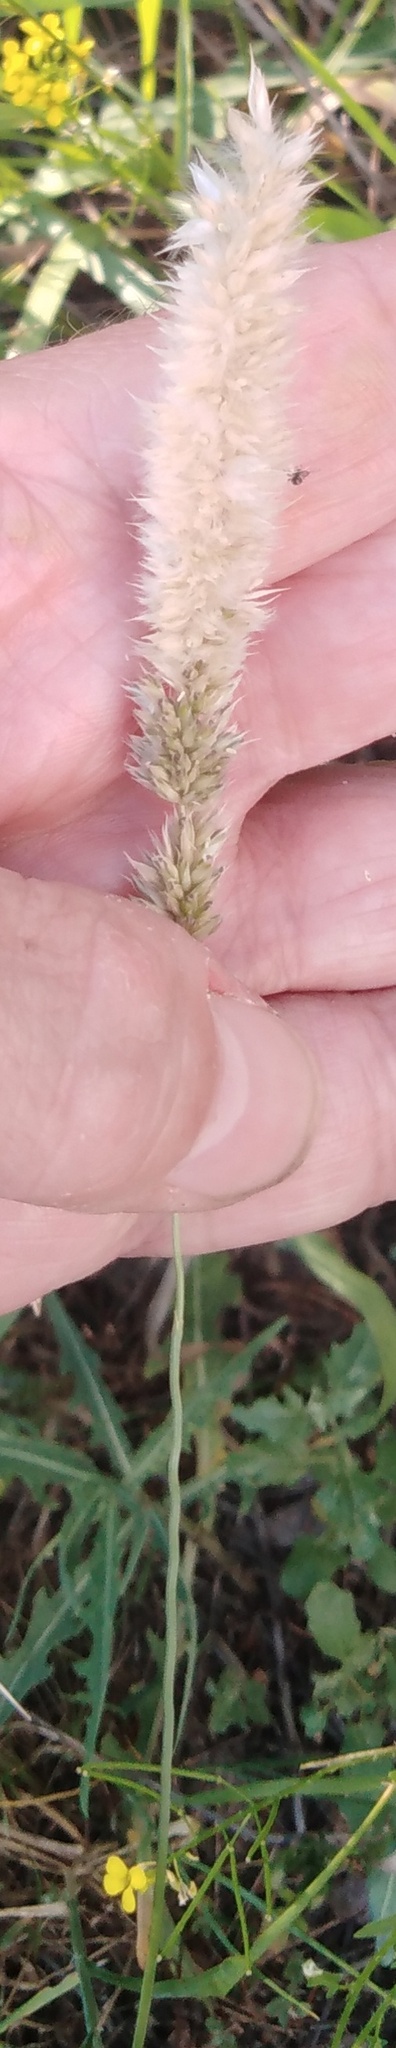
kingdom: Plantae
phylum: Tracheophyta
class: Liliopsida
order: Poales
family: Poaceae
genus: Melica
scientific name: Melica transsilvanica
